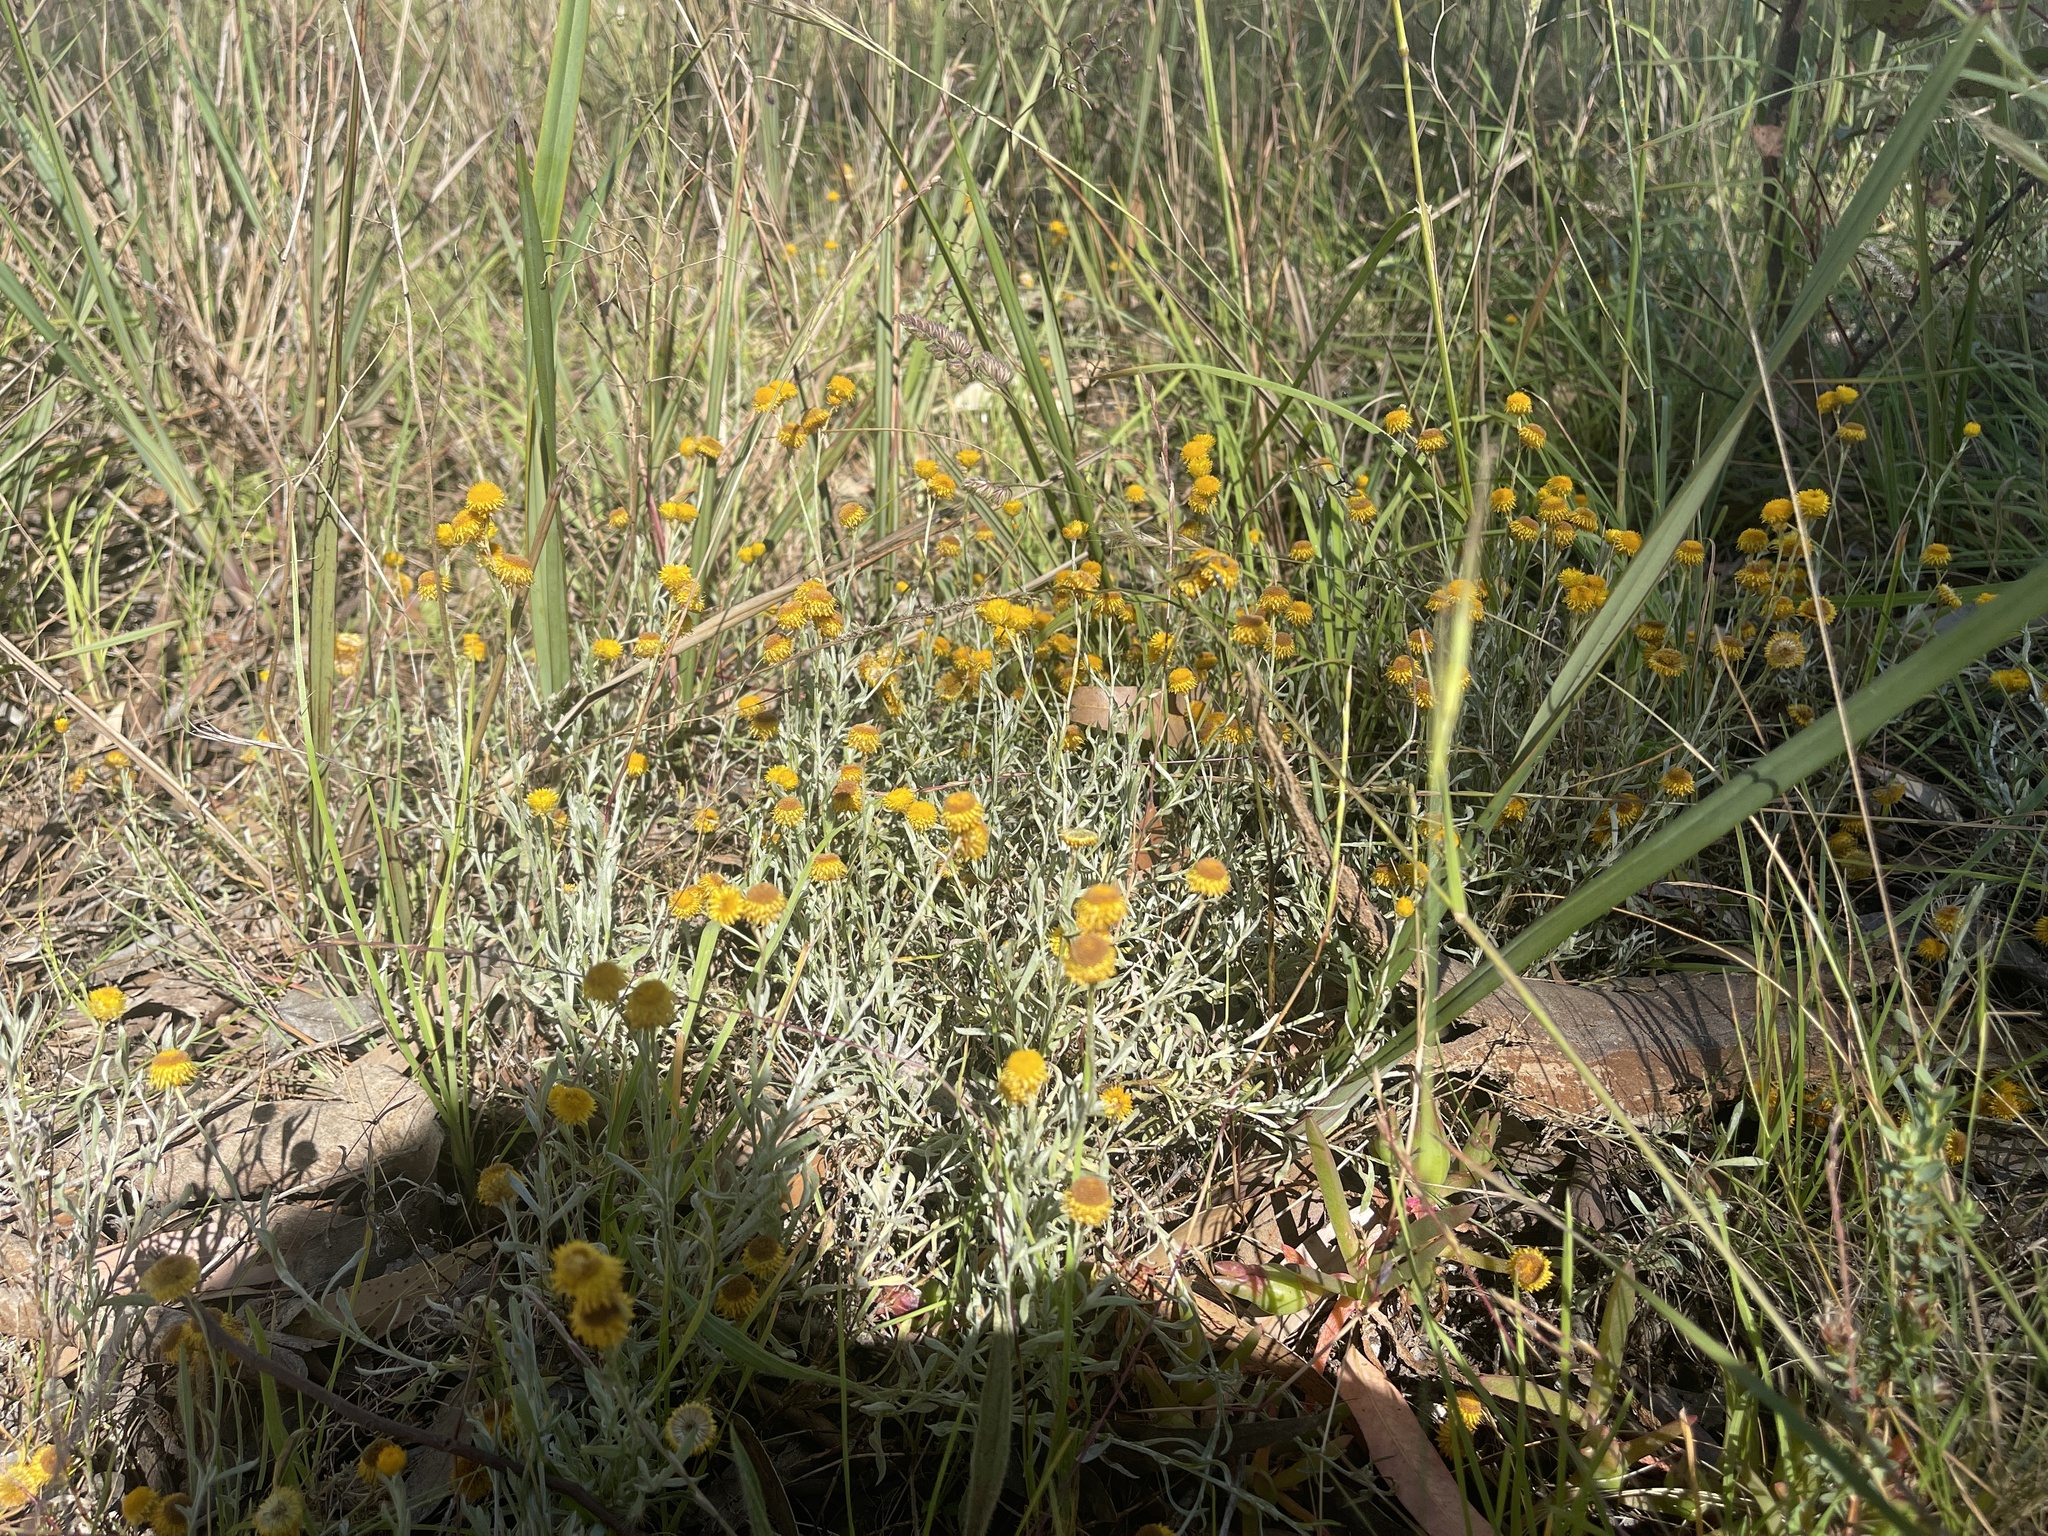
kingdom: Plantae
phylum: Tracheophyta
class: Magnoliopsida
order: Asterales
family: Asteraceae
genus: Chrysocephalum
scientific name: Chrysocephalum apiculatum
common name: Common everlasting
